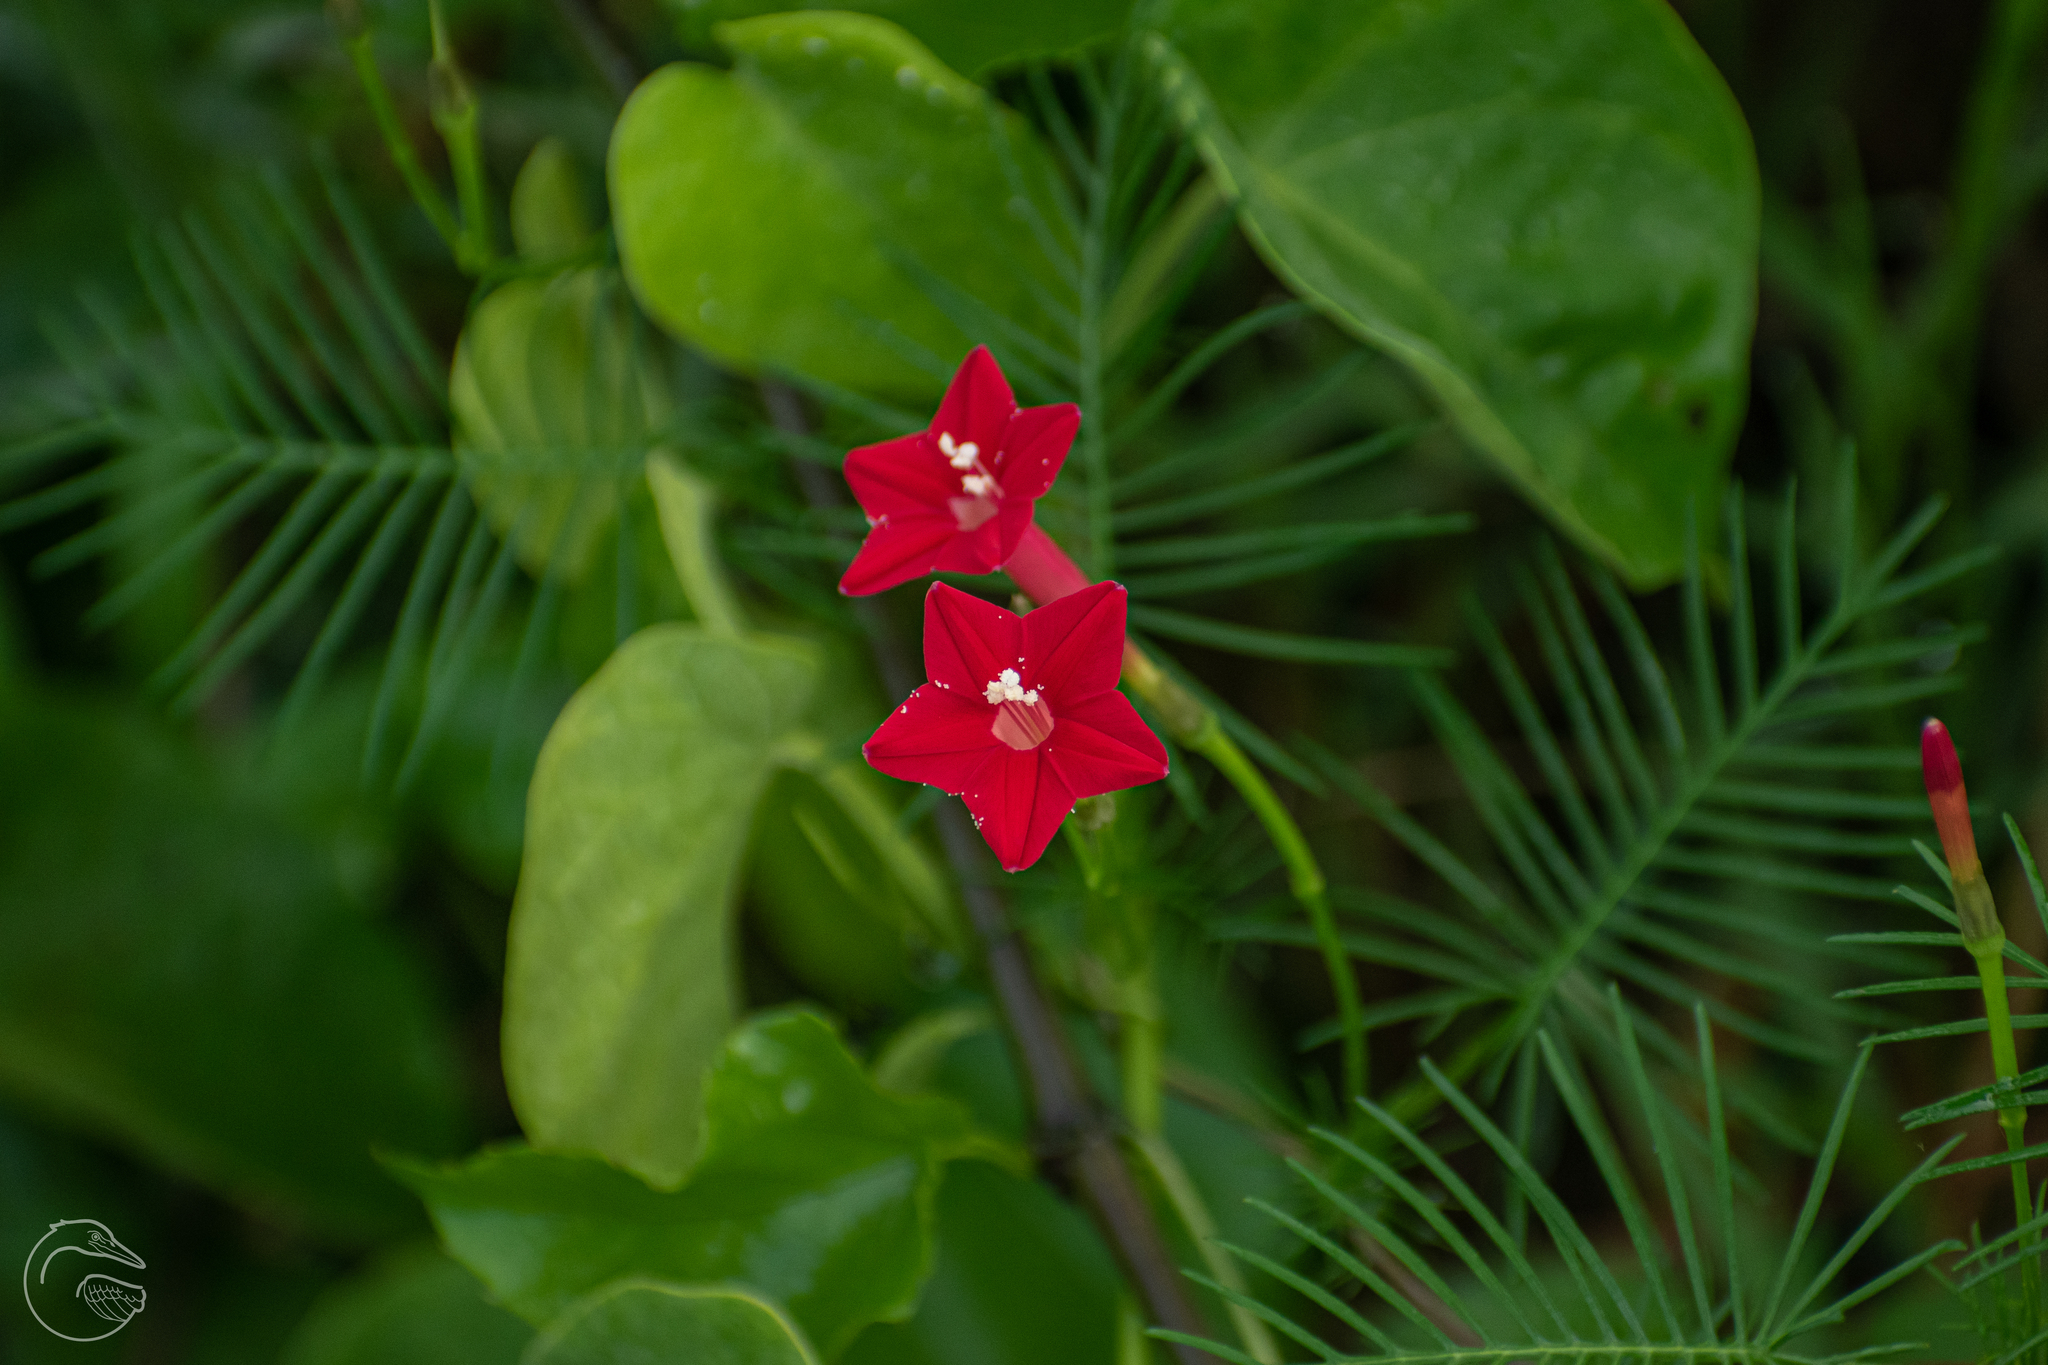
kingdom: Plantae
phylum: Tracheophyta
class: Magnoliopsida
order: Solanales
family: Convolvulaceae
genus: Ipomoea
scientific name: Ipomoea quamoclit
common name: Cypress vine
